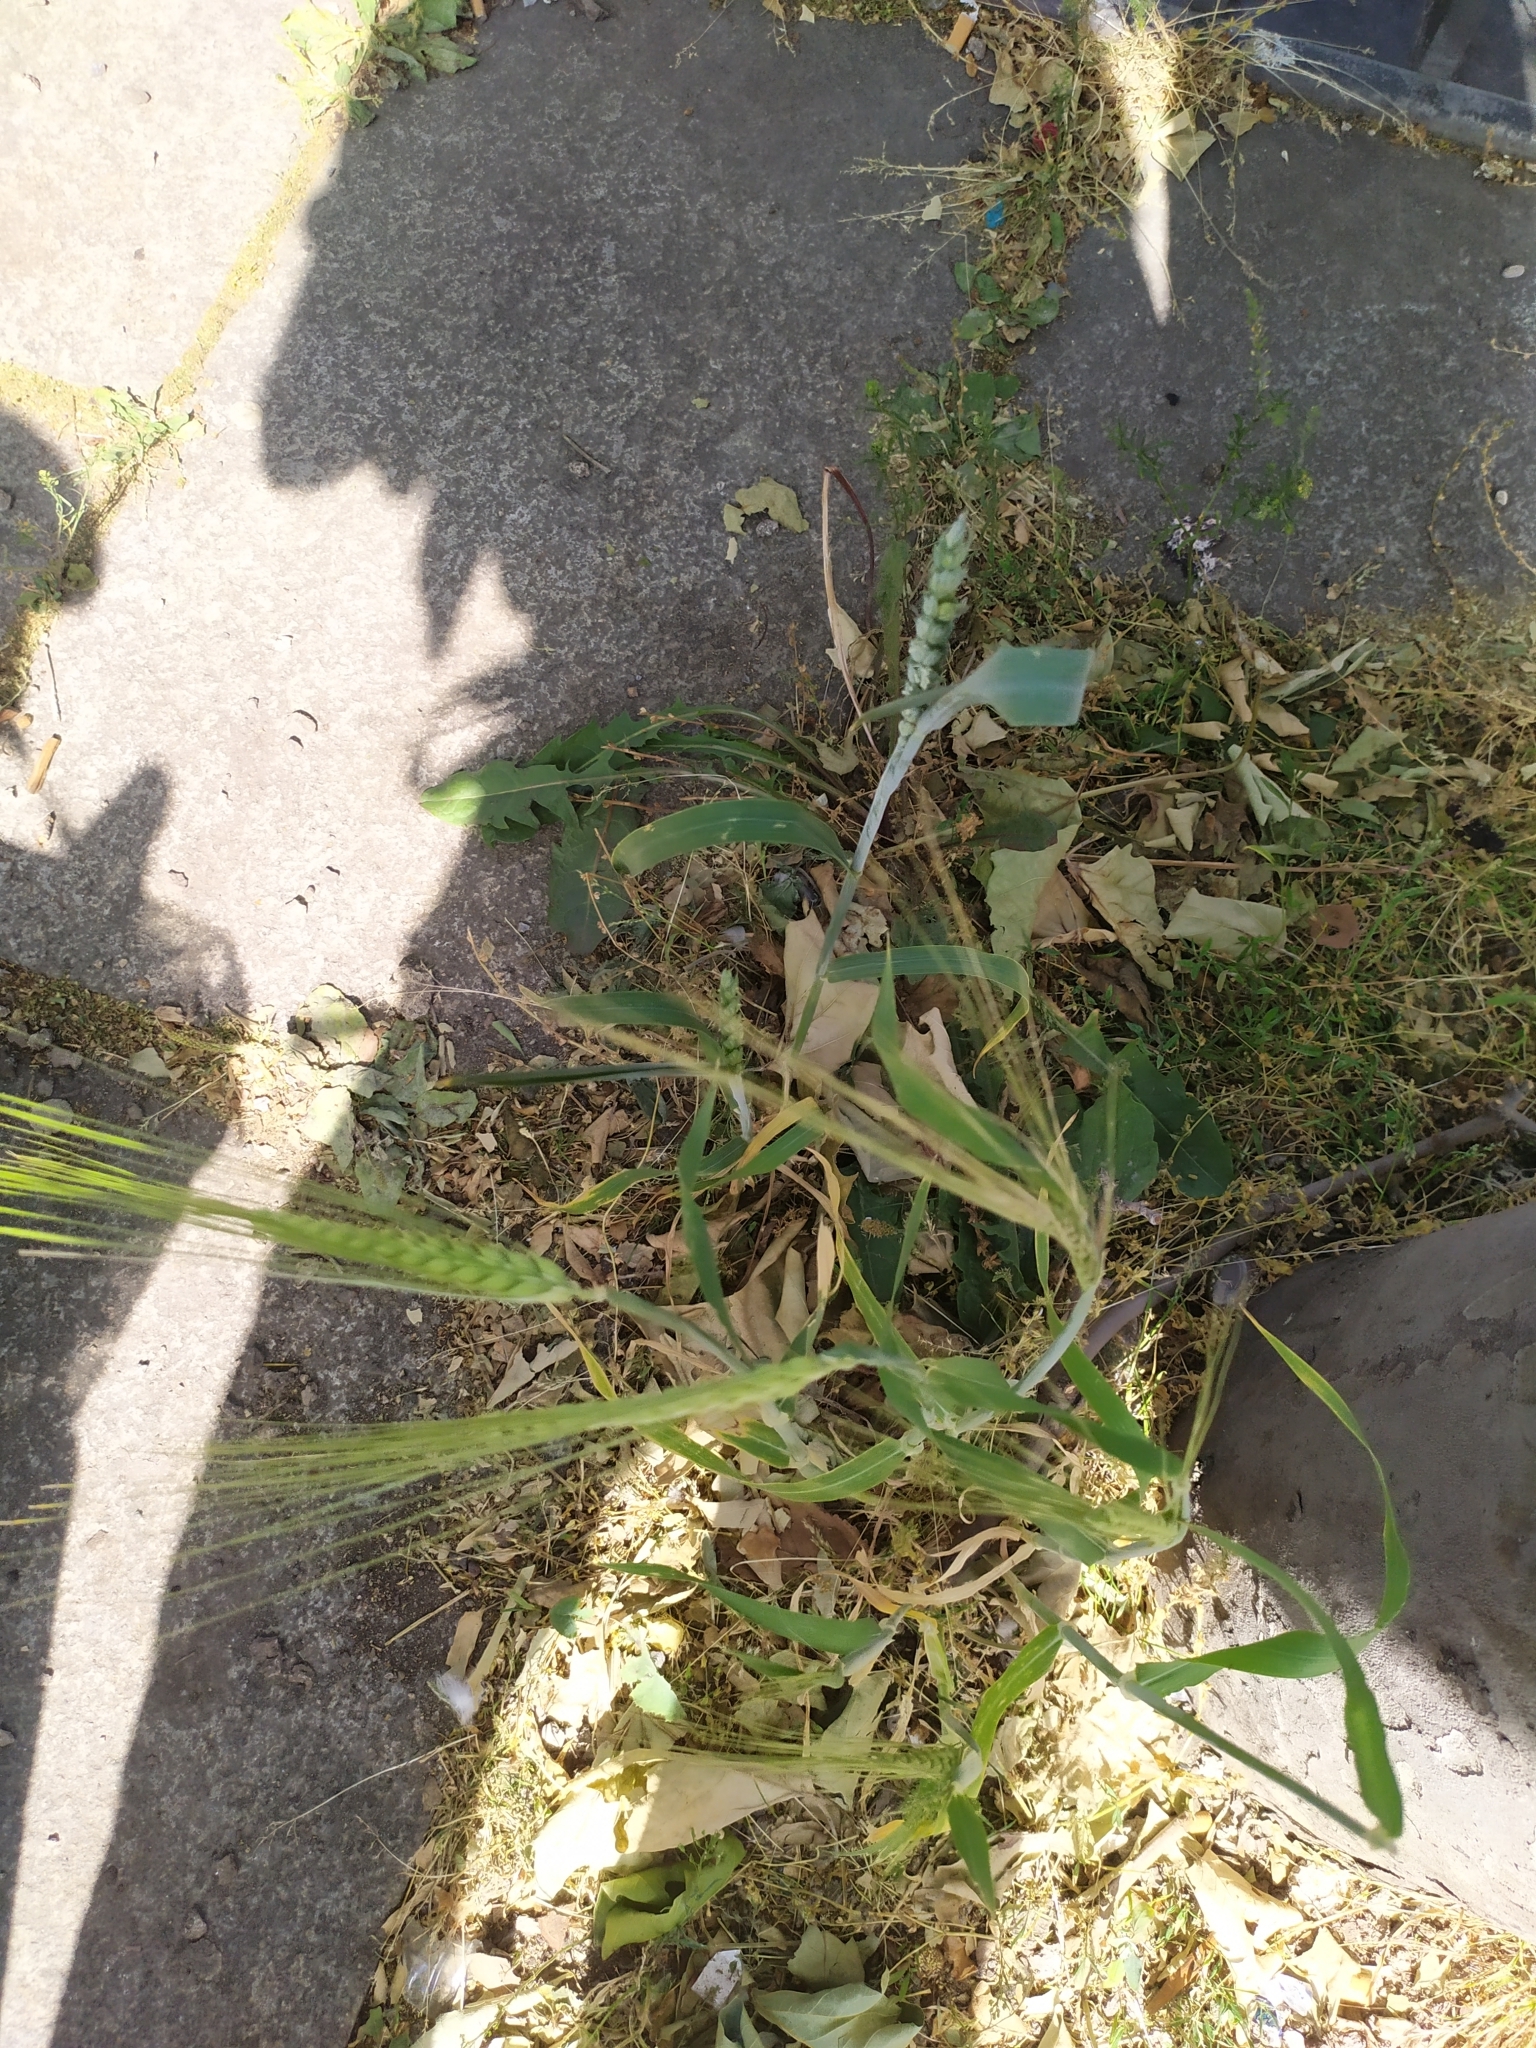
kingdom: Plantae
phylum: Tracheophyta
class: Liliopsida
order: Poales
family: Poaceae
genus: Triticum
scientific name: Triticum aestivum
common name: Common wheat
